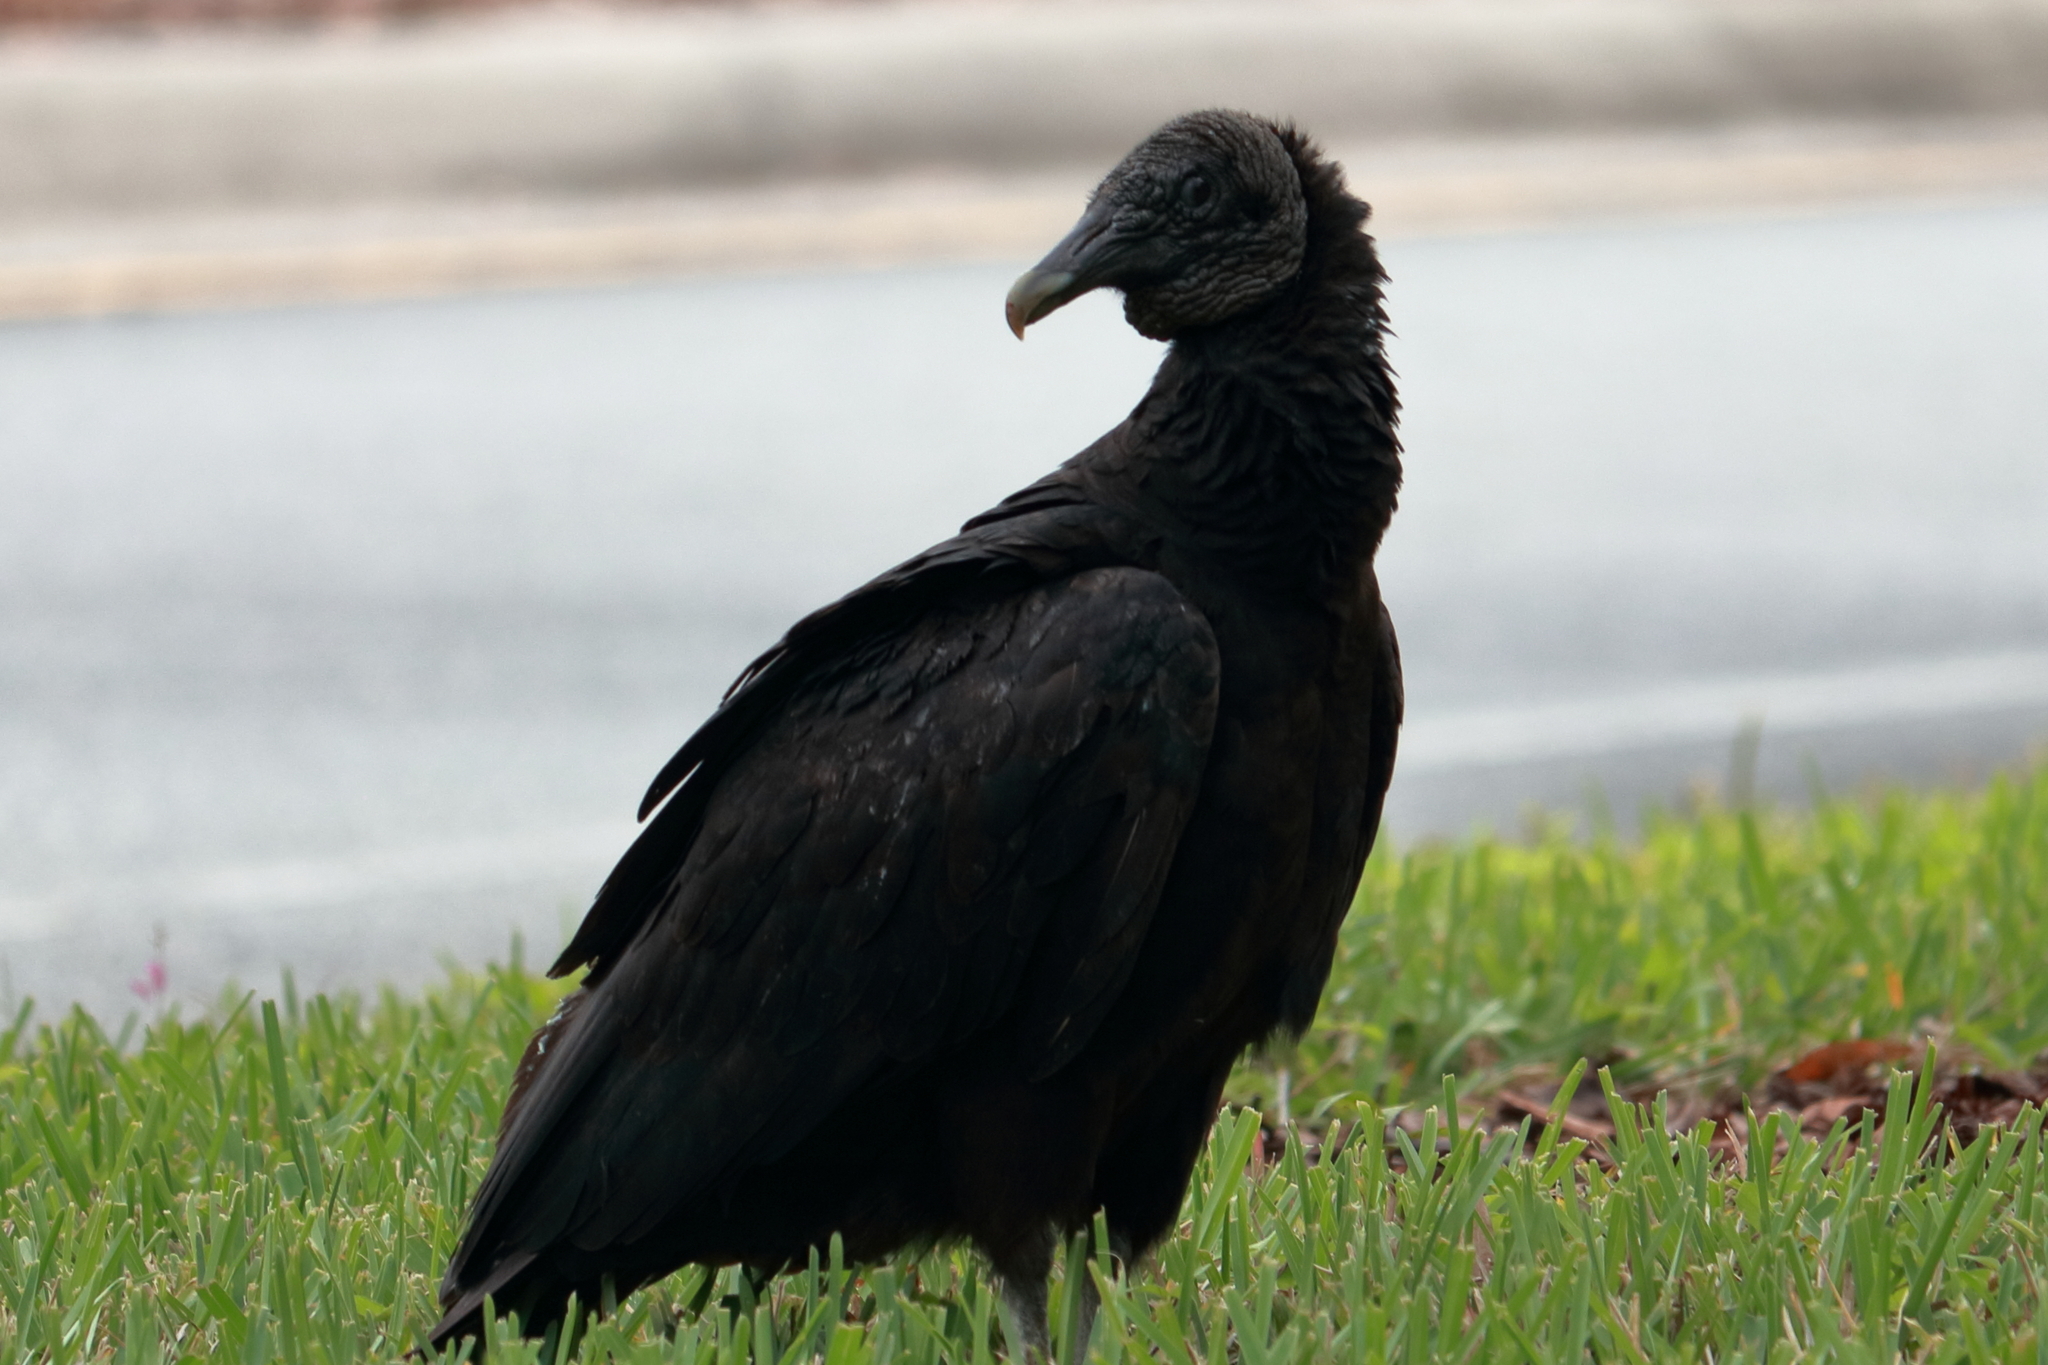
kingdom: Animalia
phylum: Chordata
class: Aves
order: Accipitriformes
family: Cathartidae
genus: Coragyps
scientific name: Coragyps atratus
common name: Black vulture
